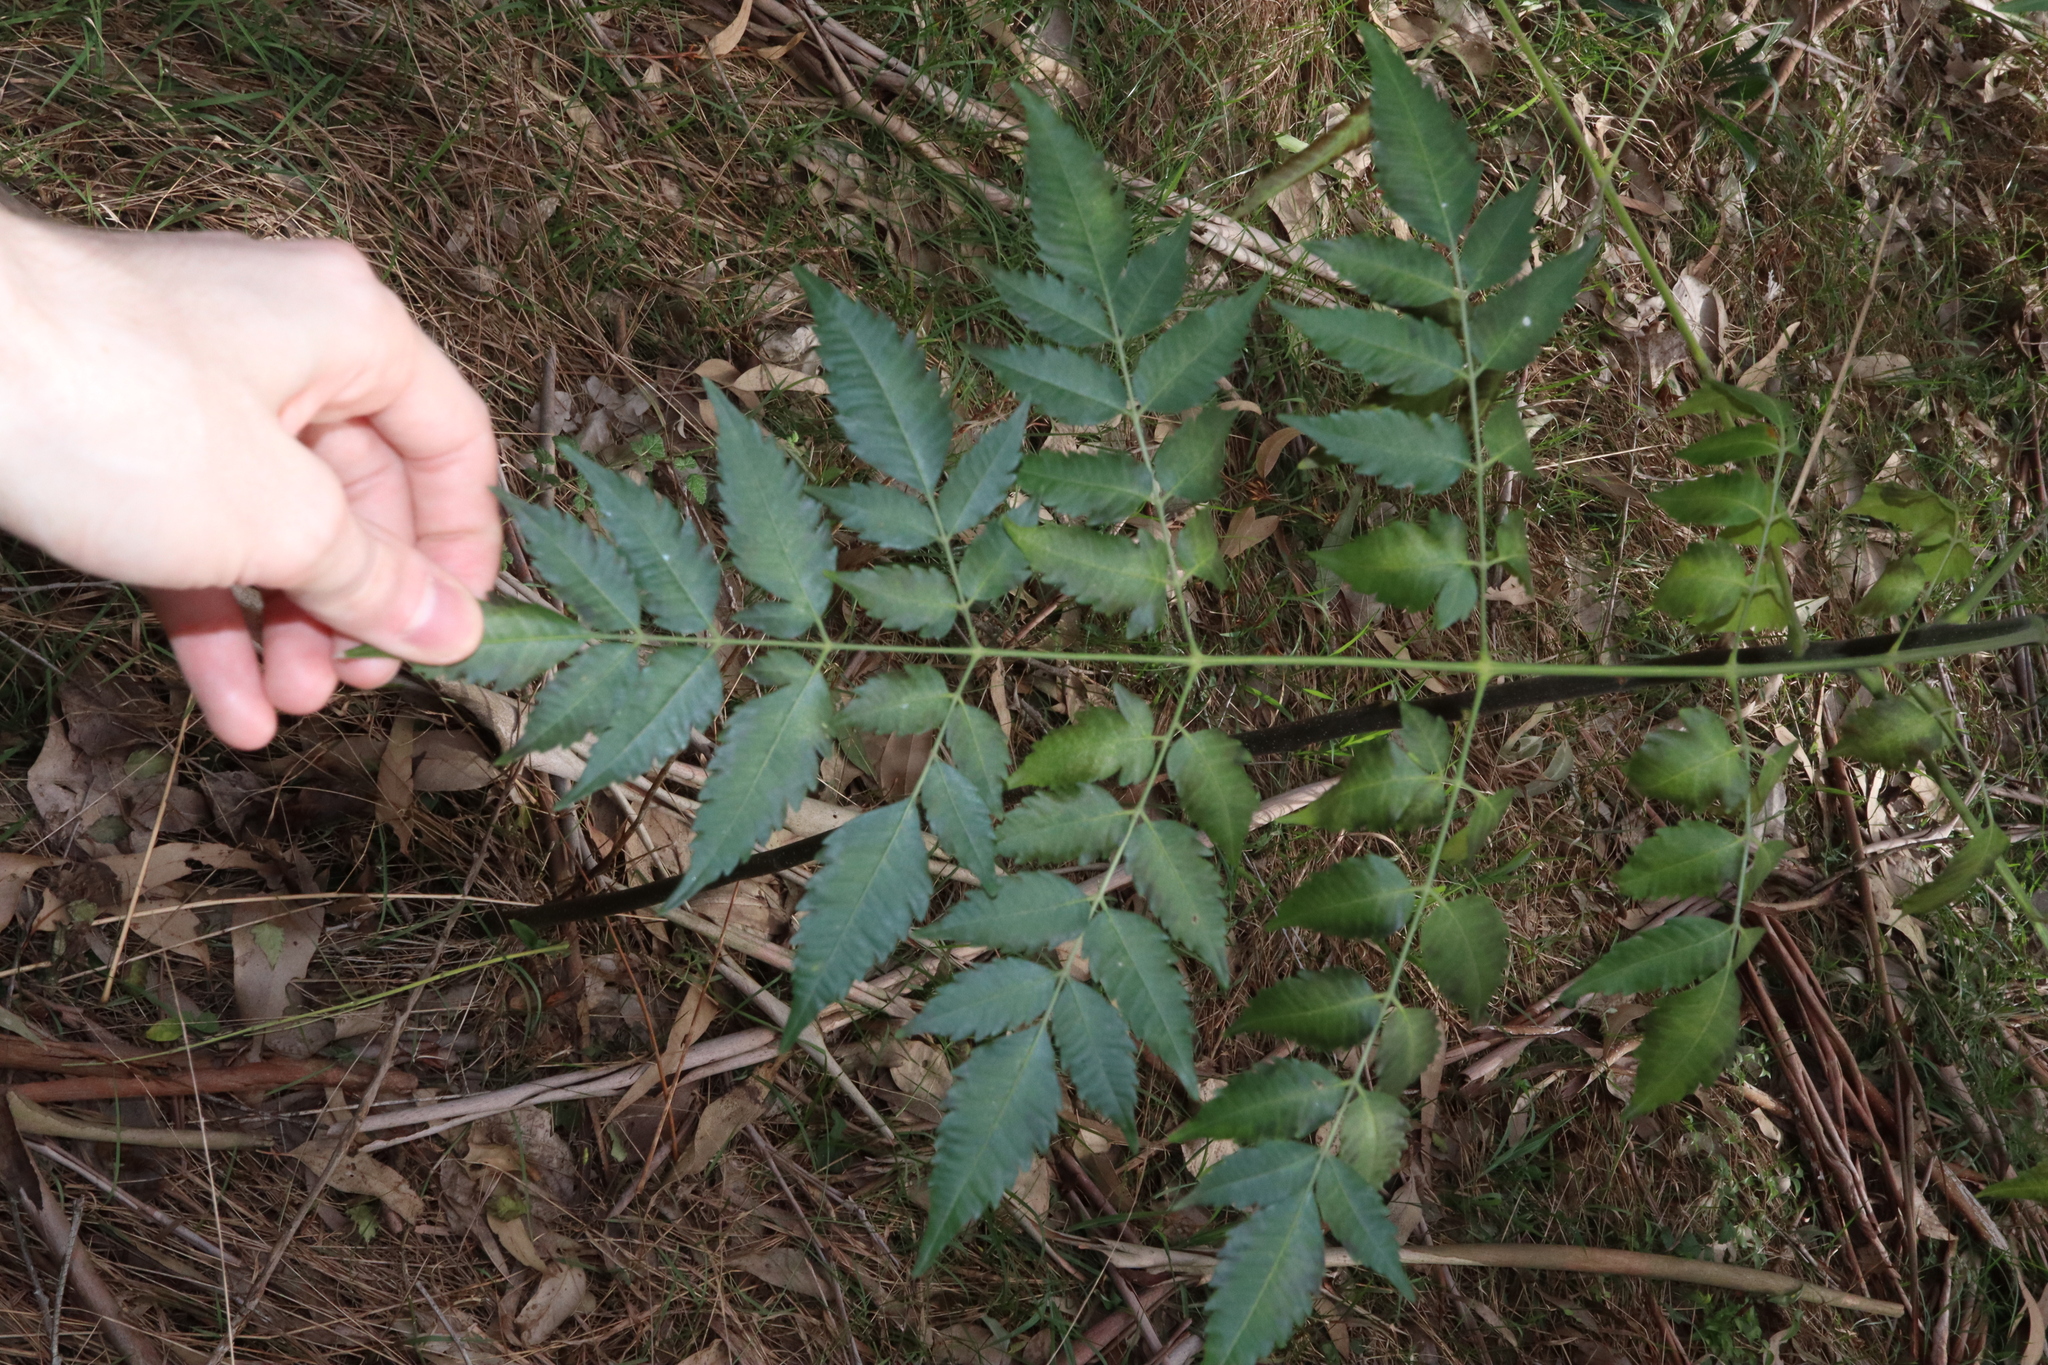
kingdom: Plantae
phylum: Tracheophyta
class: Magnoliopsida
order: Sapindales
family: Meliaceae
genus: Melia
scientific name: Melia azedarach
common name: Chinaberrytree
